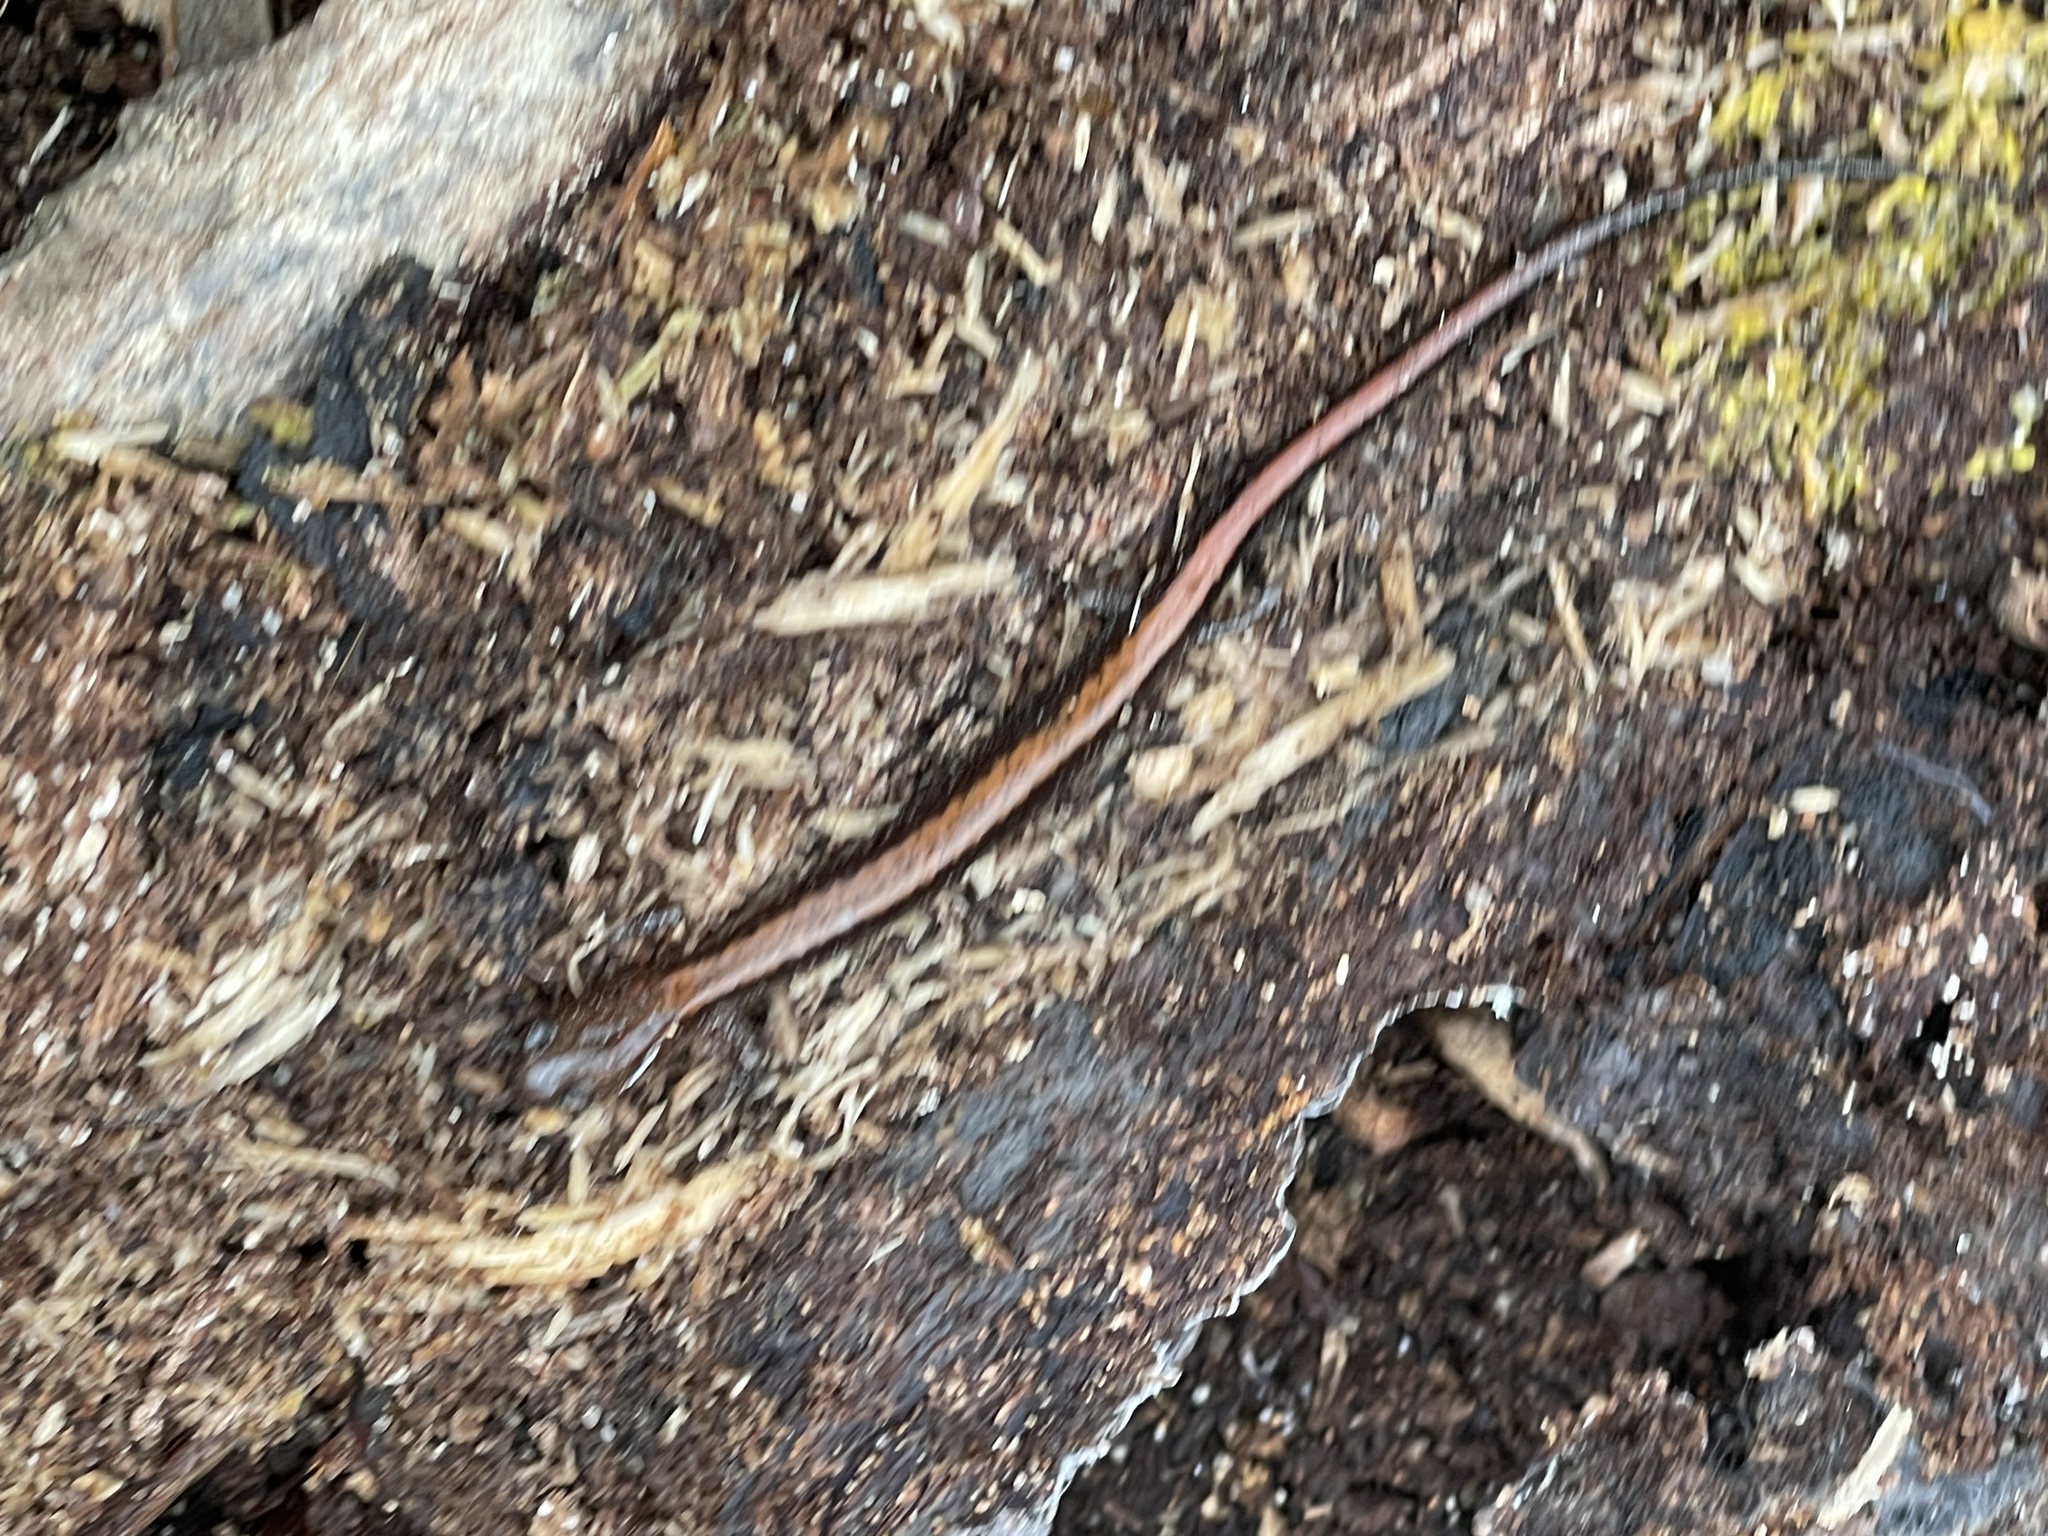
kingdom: Animalia
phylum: Chordata
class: Amphibia
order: Caudata
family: Plethodontidae
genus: Plethodon
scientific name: Plethodon cinereus
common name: Redback salamander
